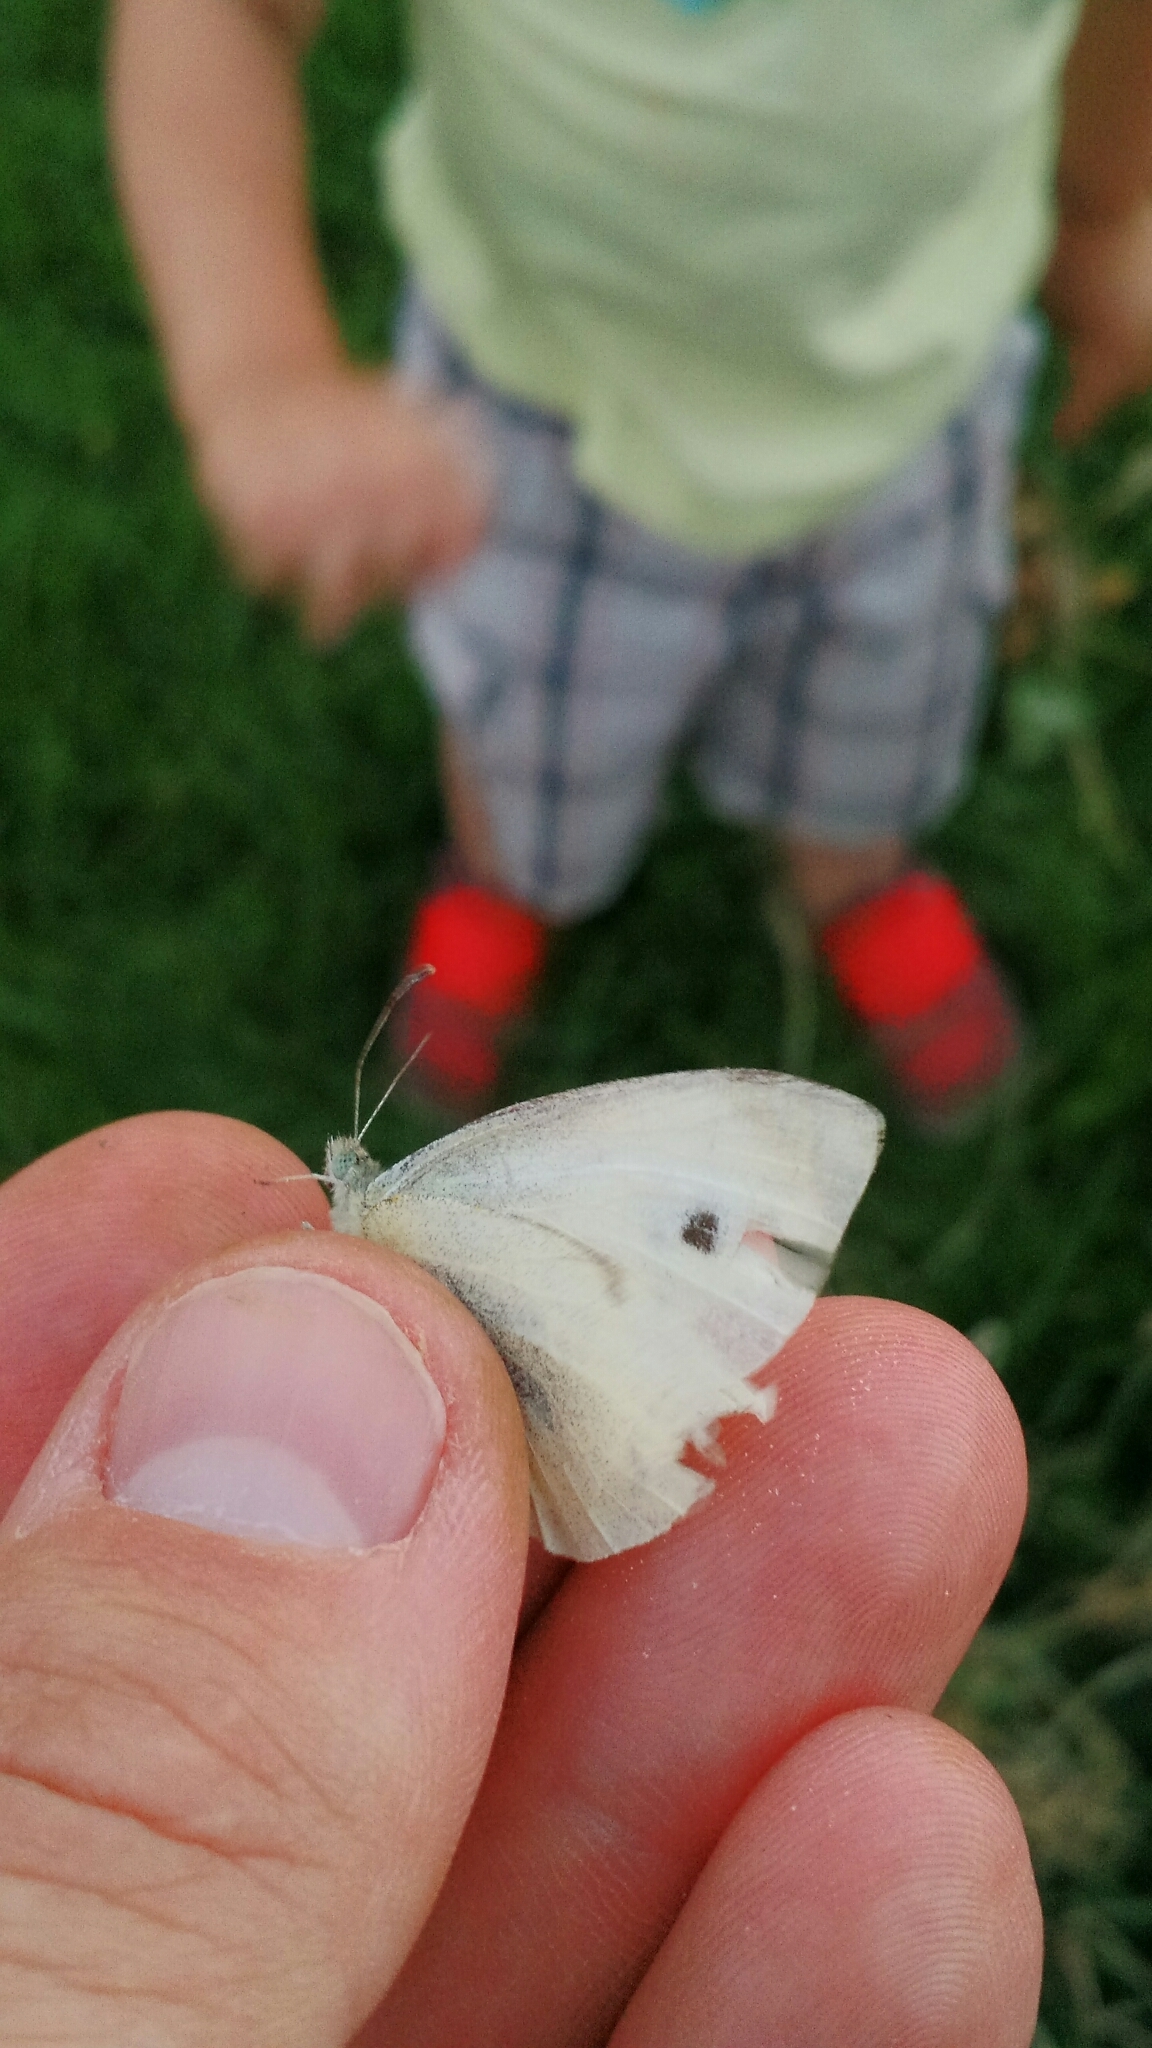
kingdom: Animalia
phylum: Arthropoda
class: Insecta
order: Lepidoptera
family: Pieridae
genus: Pieris
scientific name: Pieris rapae
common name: Small white
